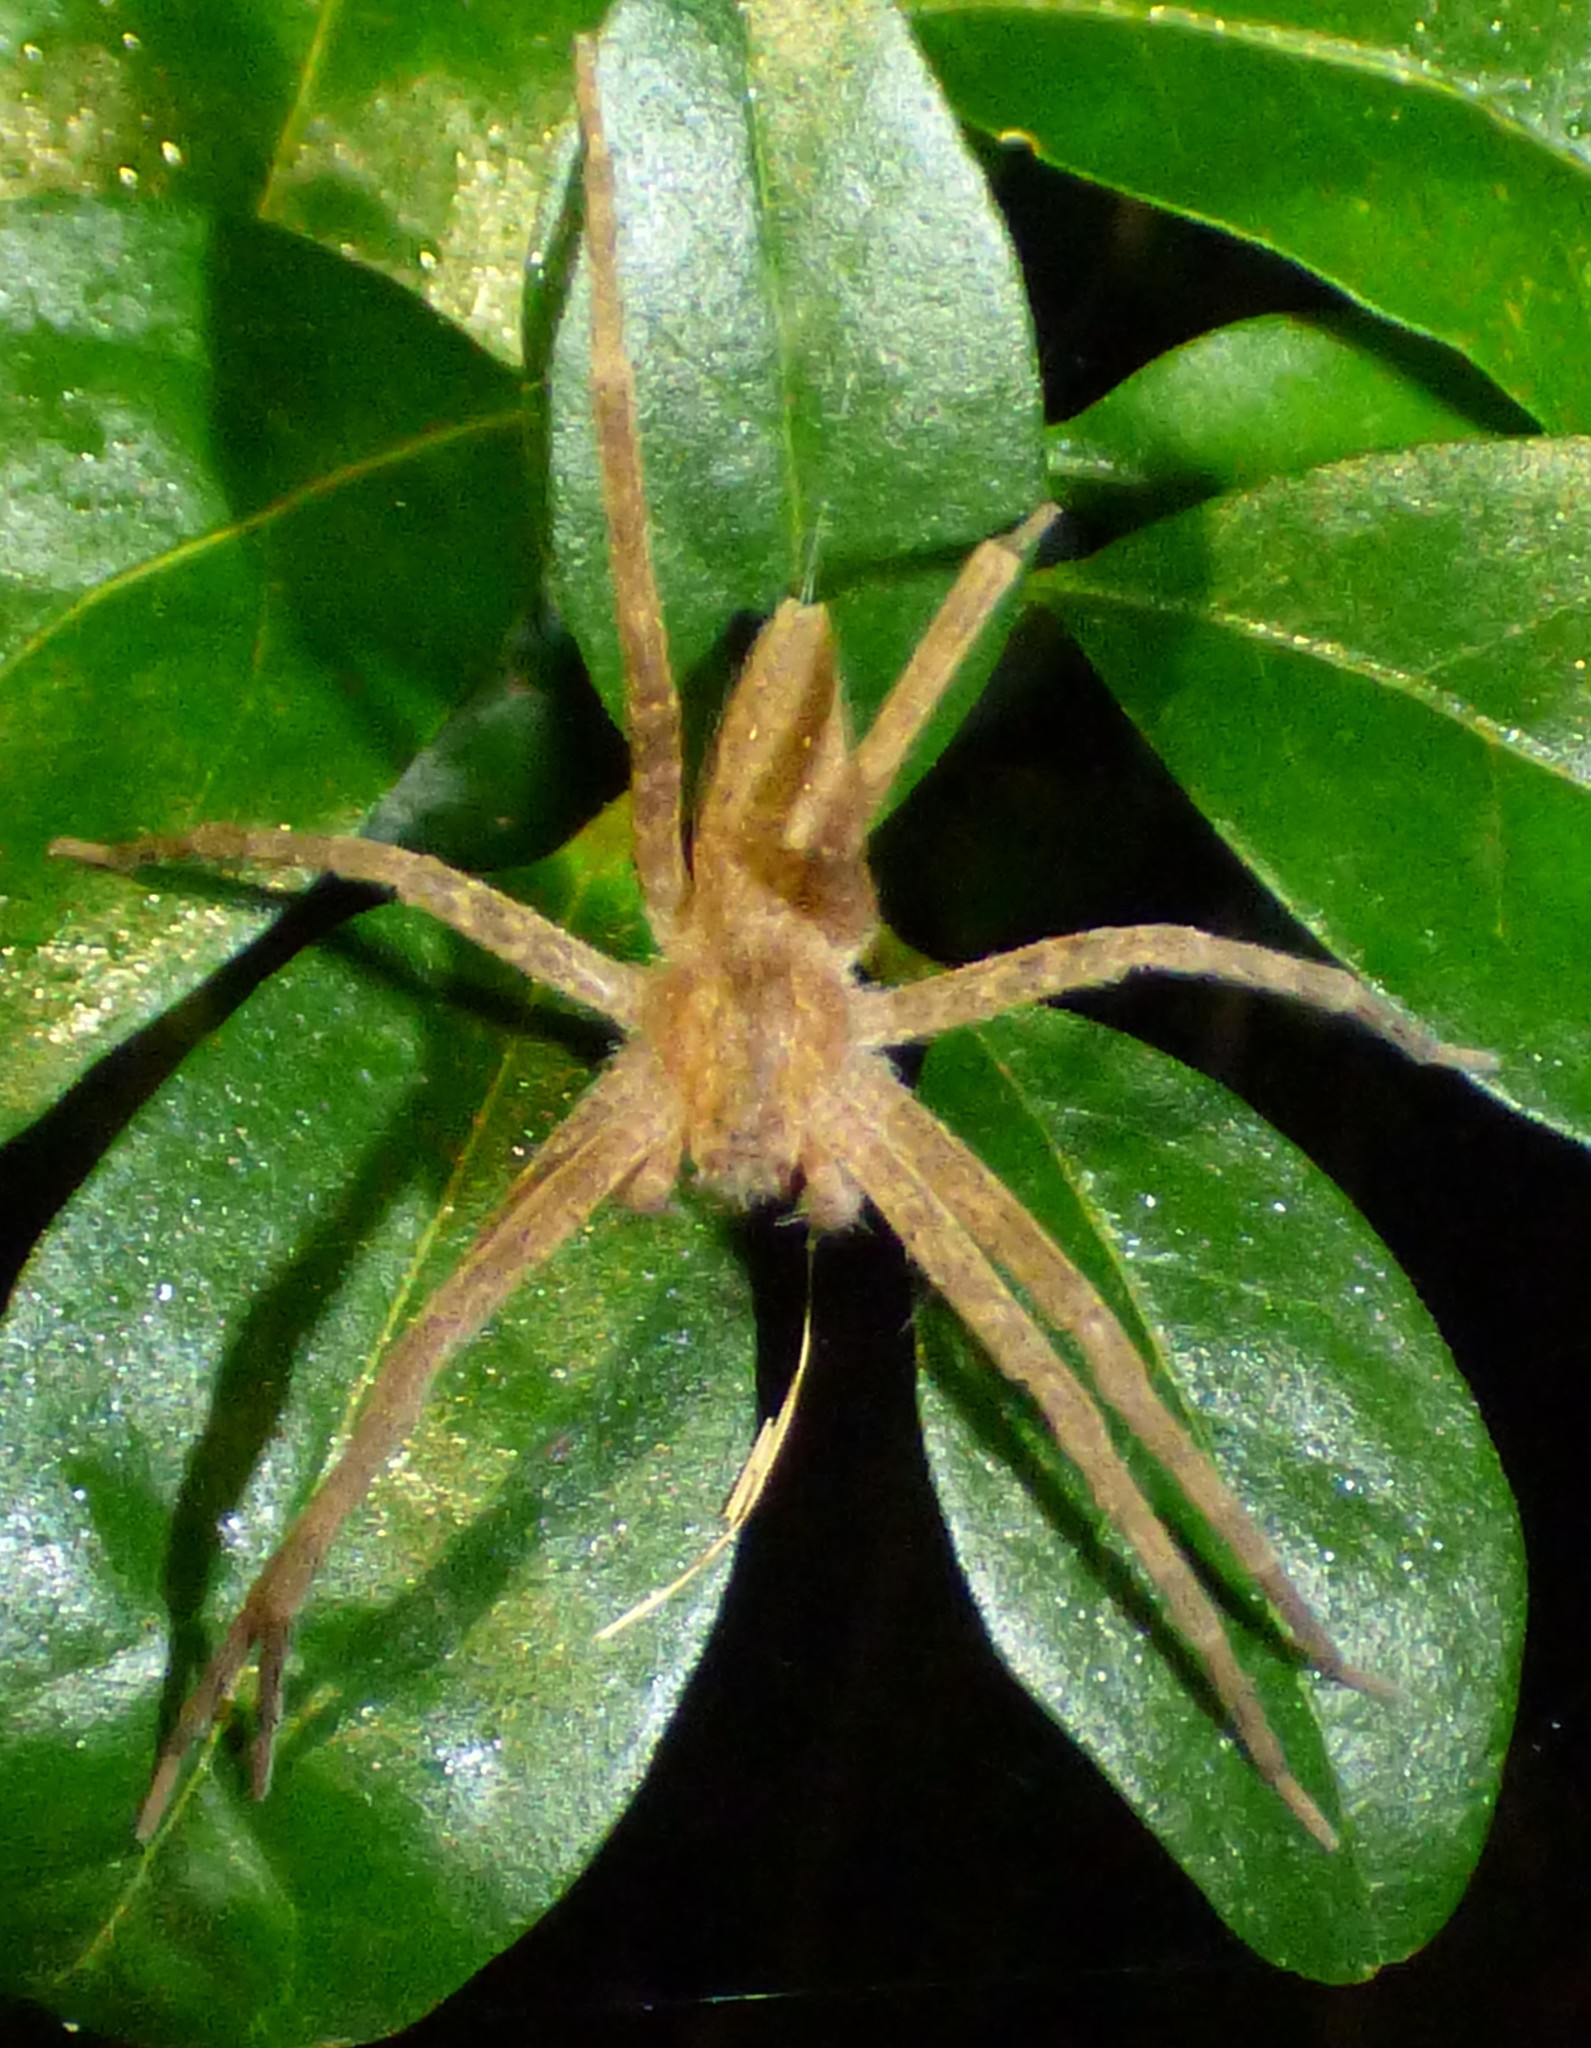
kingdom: Animalia
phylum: Arthropoda
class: Arachnida
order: Araneae
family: Pisauridae
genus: Pisaurina
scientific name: Pisaurina mira
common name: American nursery web spider
